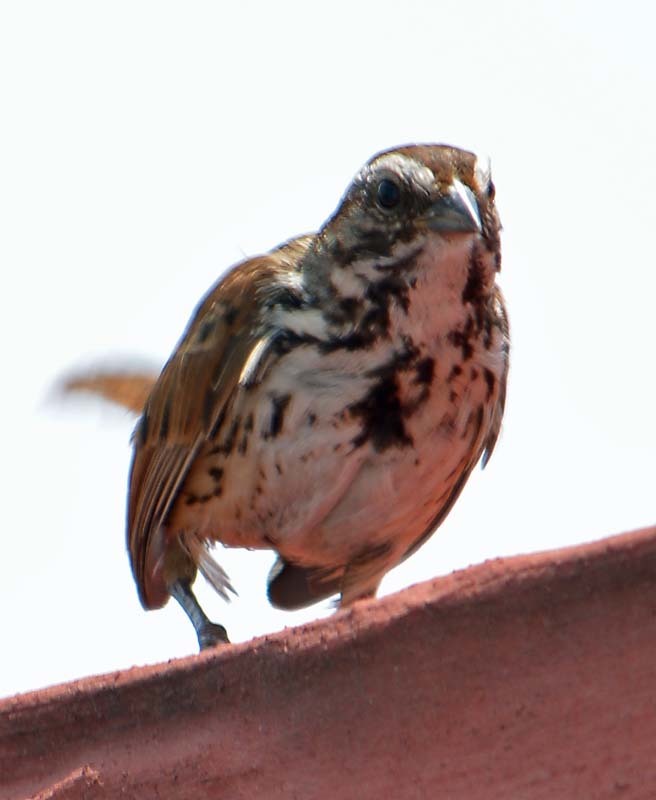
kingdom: Animalia
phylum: Chordata
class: Aves
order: Passeriformes
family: Passerellidae
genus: Melospiza
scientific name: Melospiza melodia
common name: Song sparrow
